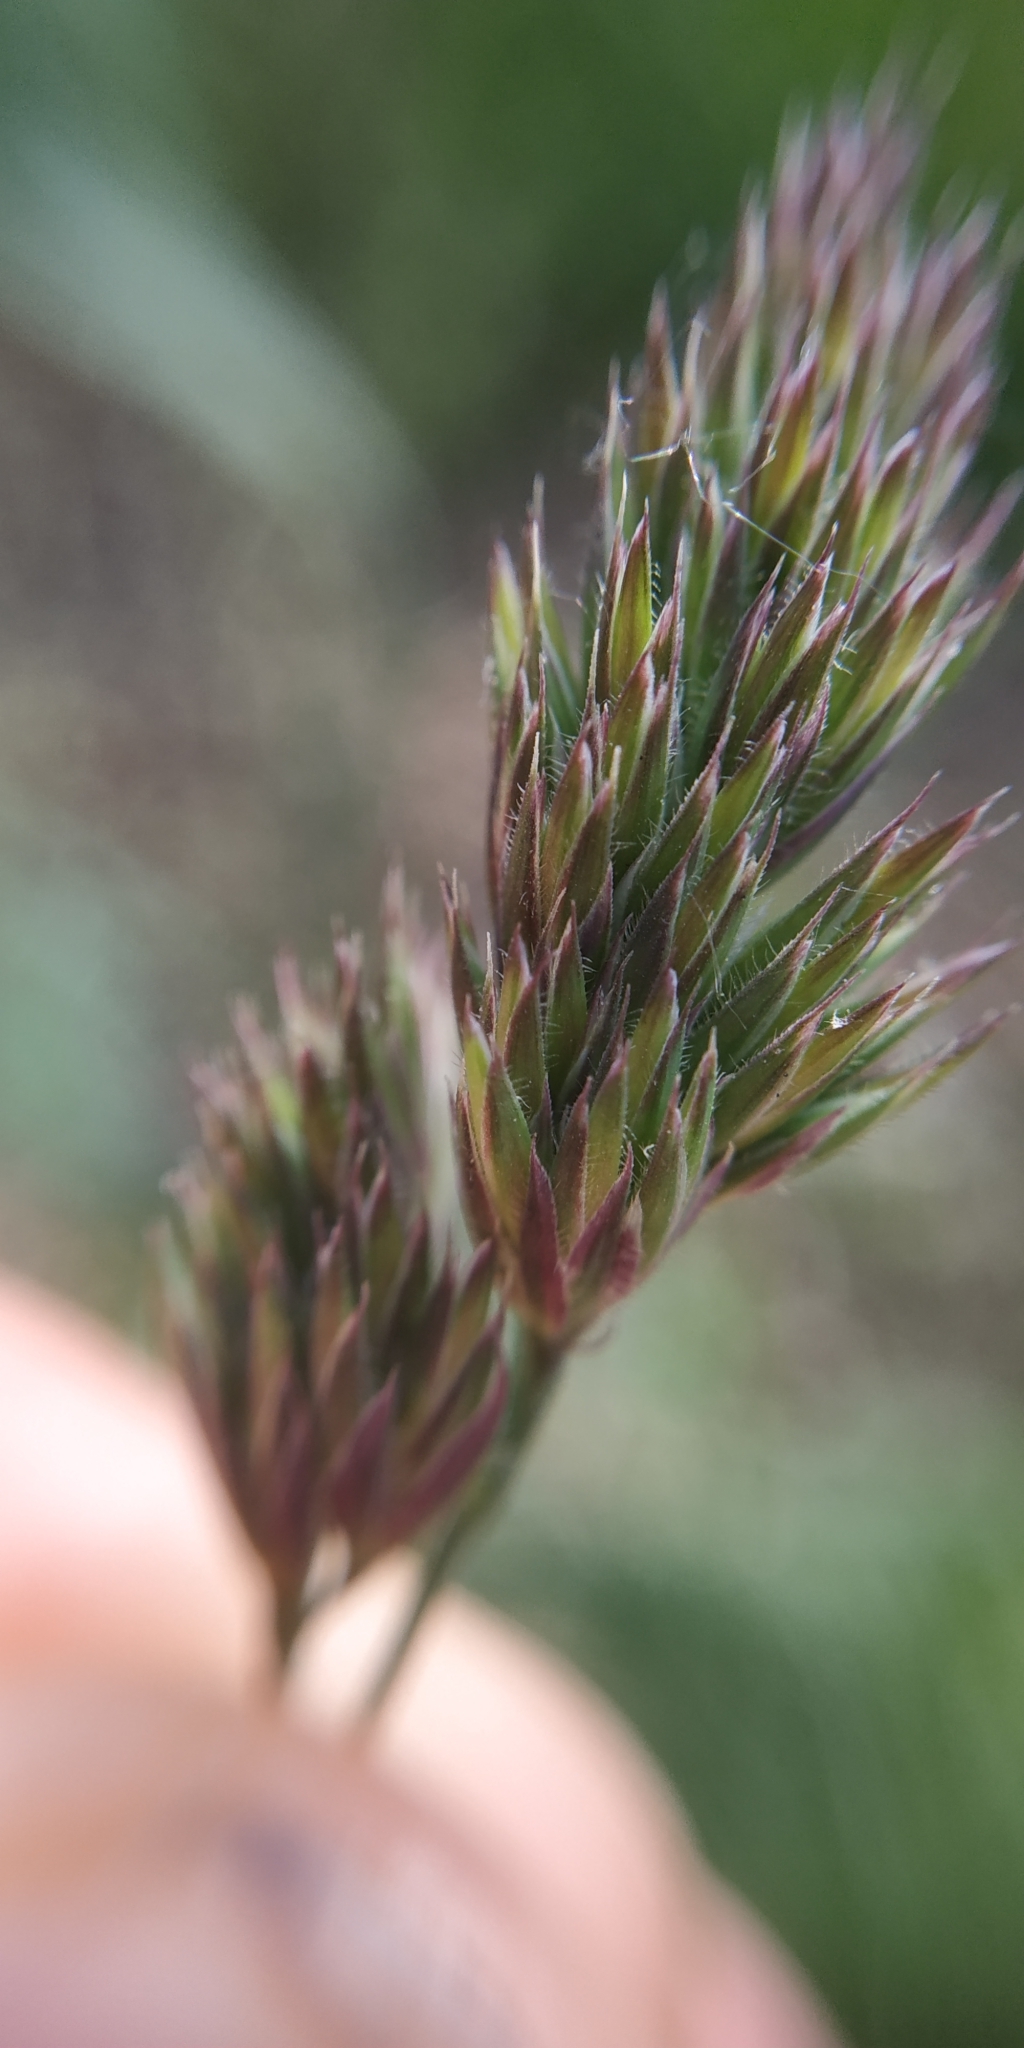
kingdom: Plantae
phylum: Tracheophyta
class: Liliopsida
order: Poales
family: Poaceae
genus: Dactylis
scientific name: Dactylis glomerata
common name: Orchardgrass
